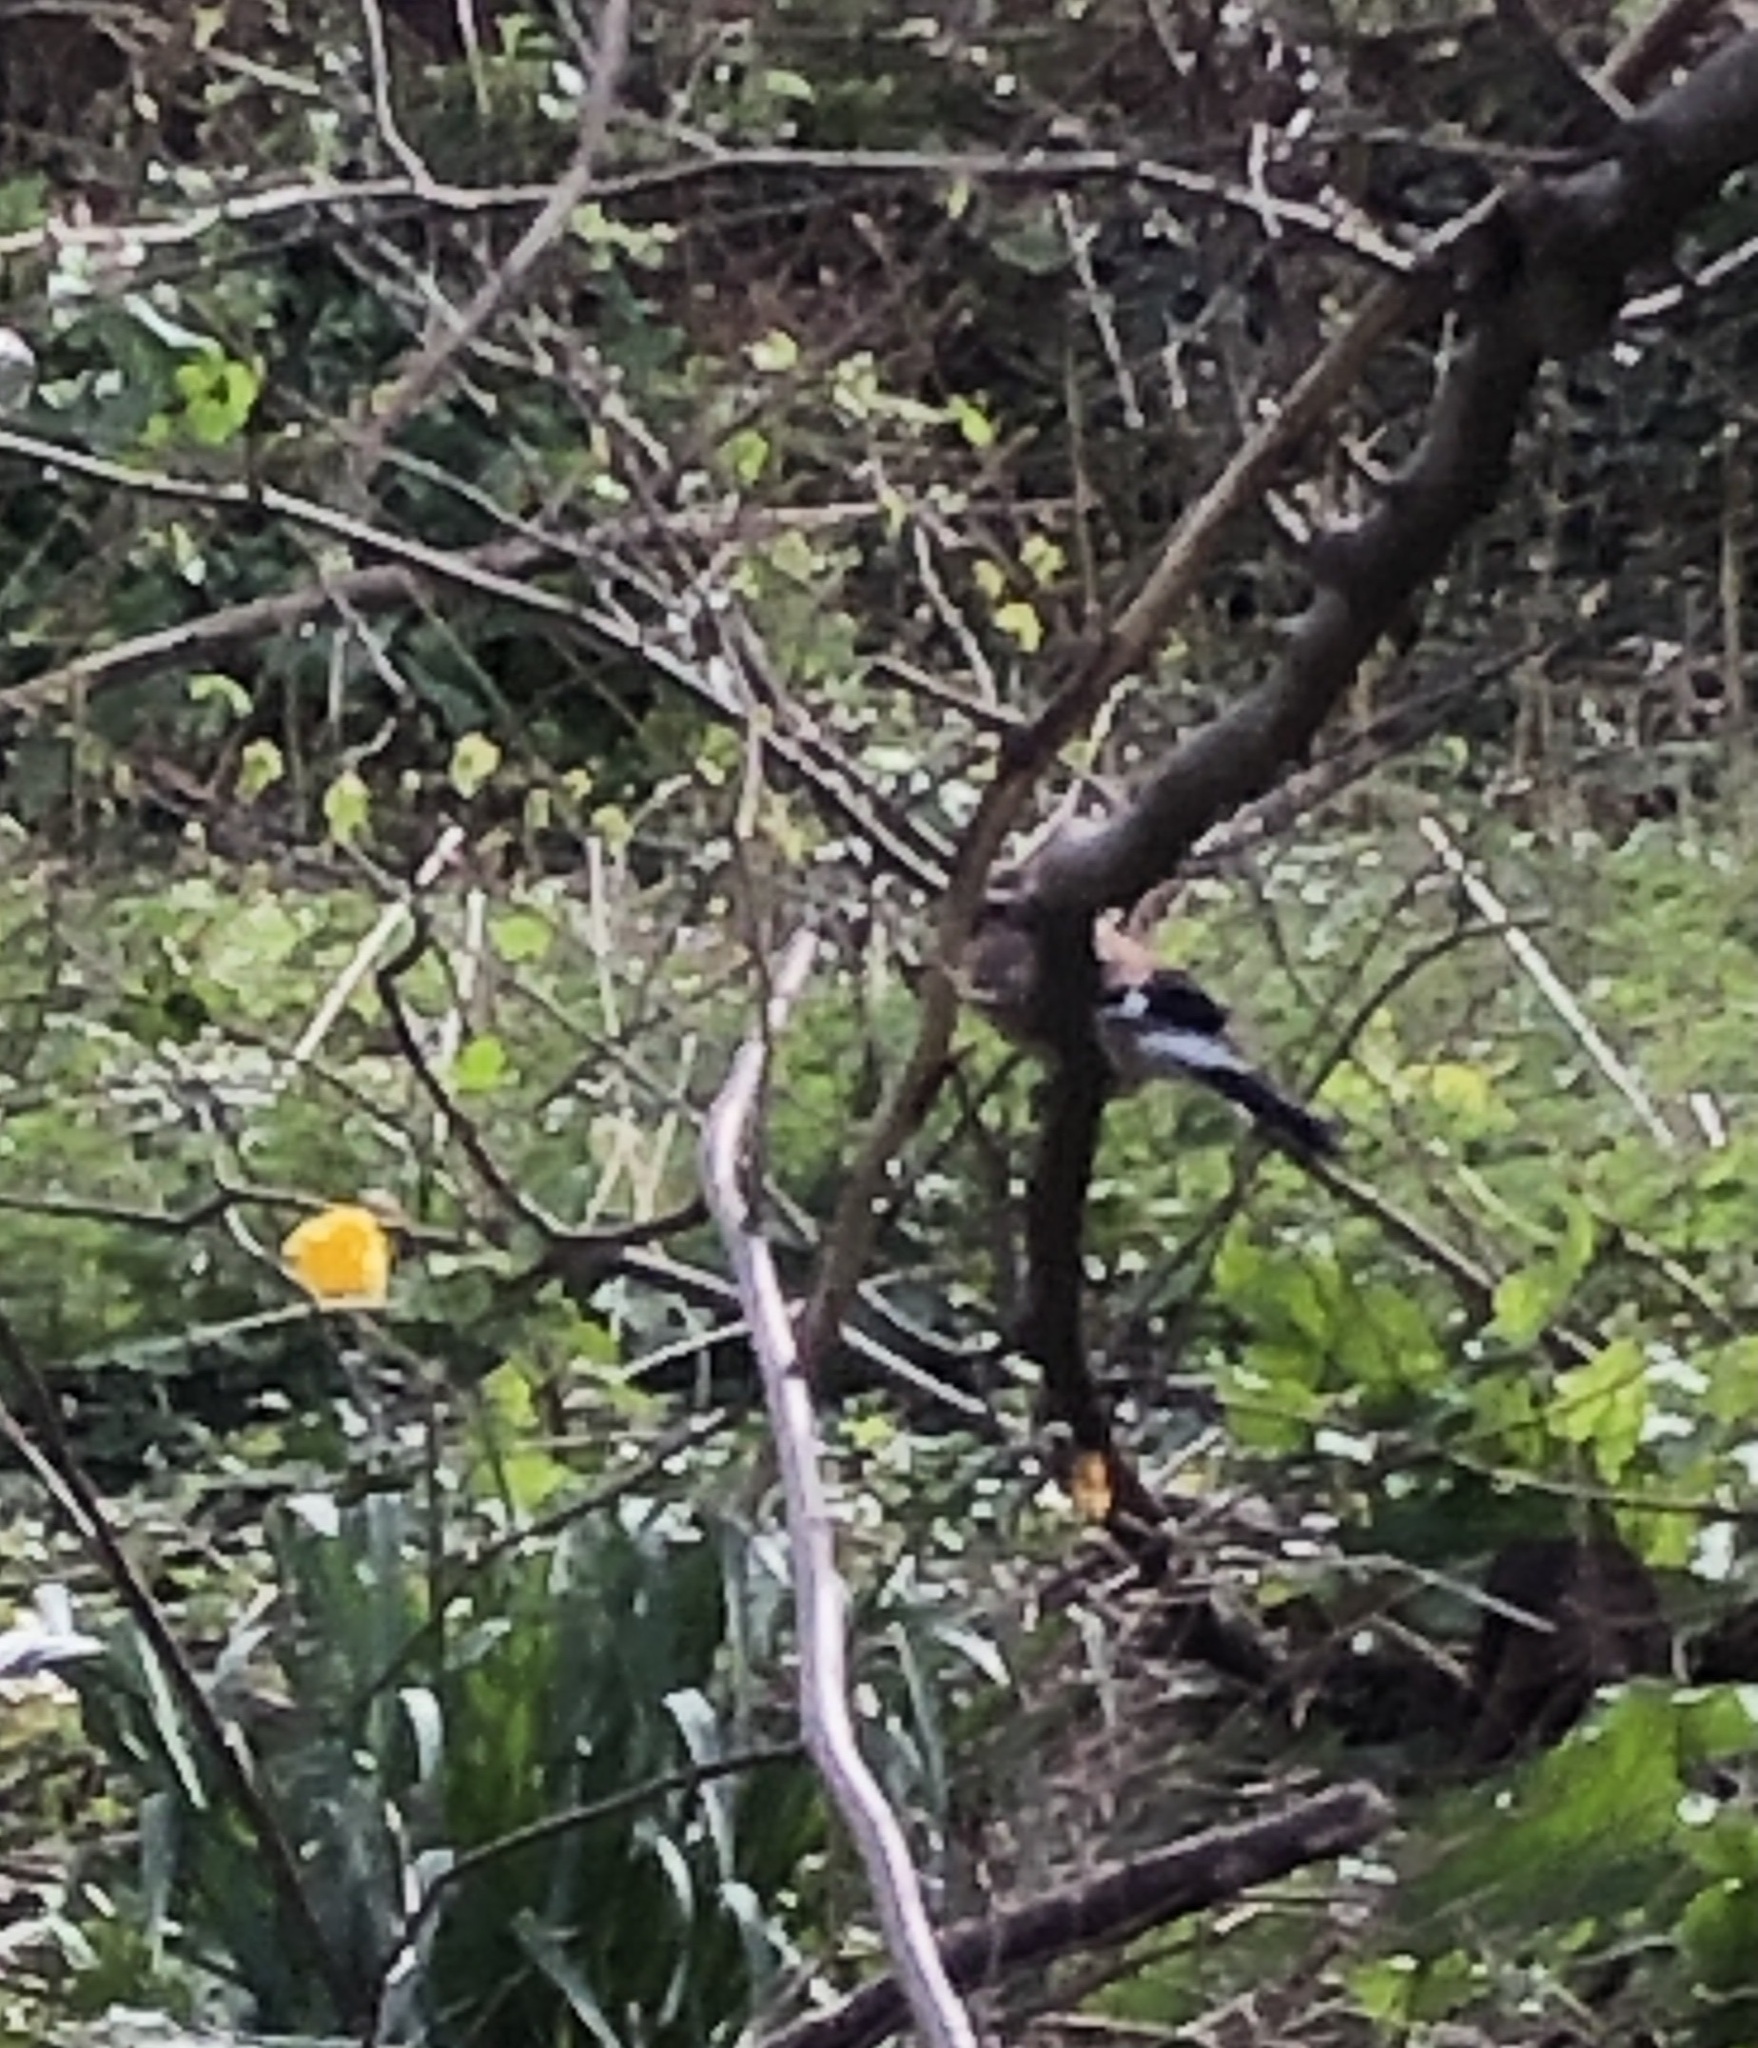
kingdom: Animalia
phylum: Chordata
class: Aves
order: Passeriformes
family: Corvidae
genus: Garrulus
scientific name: Garrulus glandarius
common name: Eurasian jay
